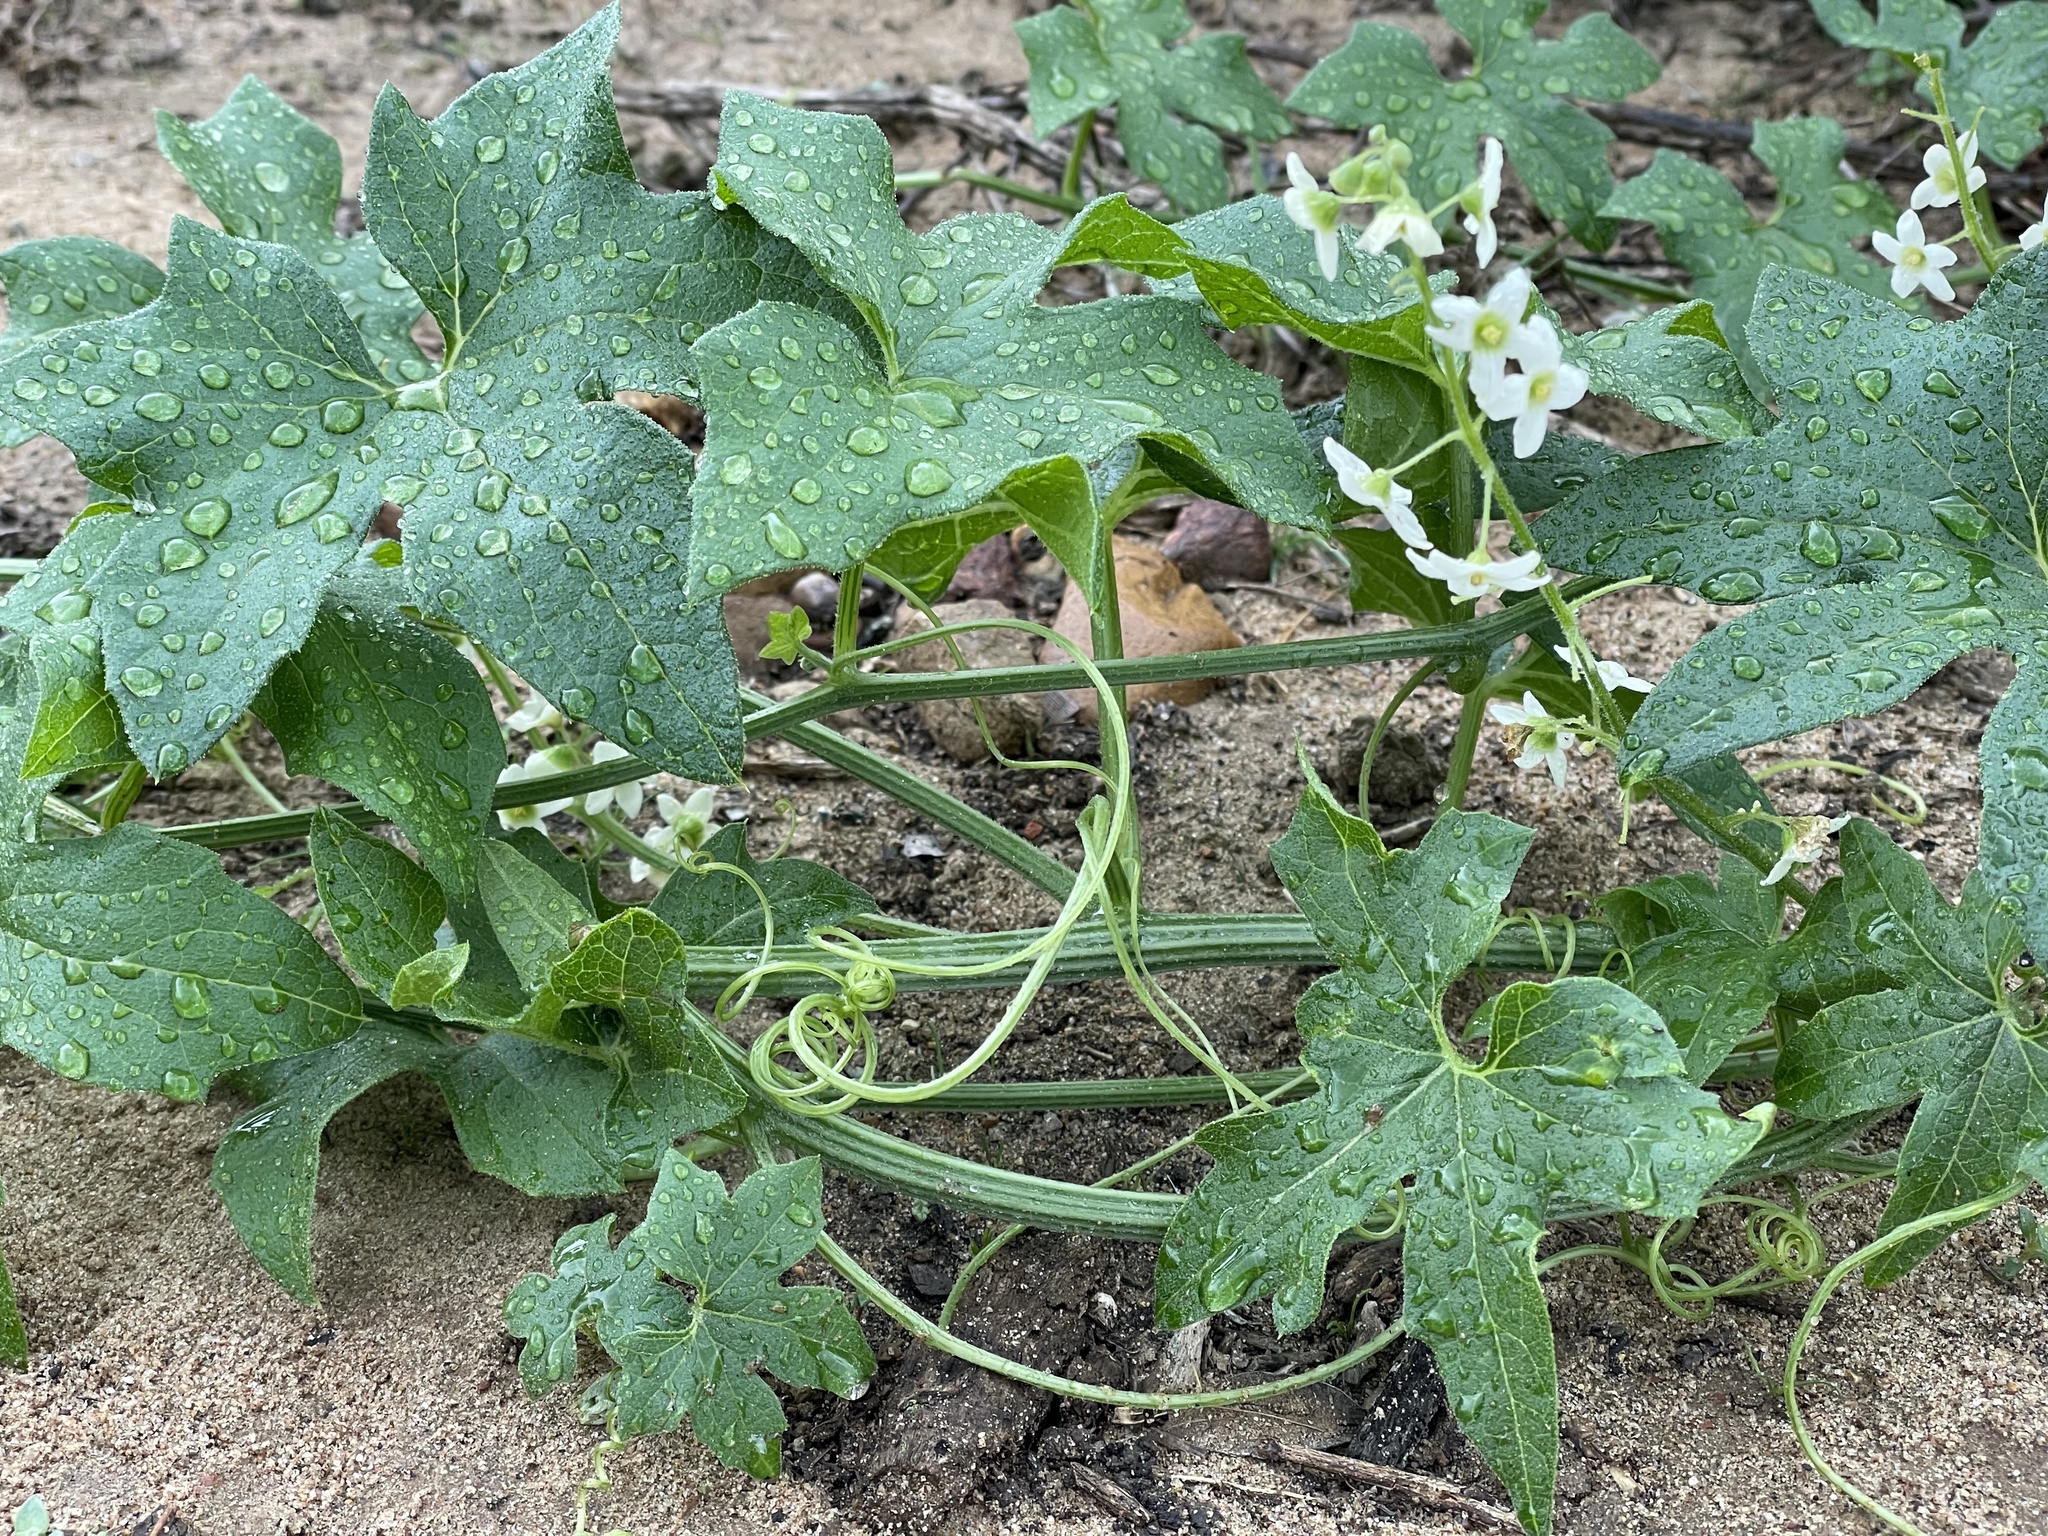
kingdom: Plantae
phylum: Tracheophyta
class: Magnoliopsida
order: Cucurbitales
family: Cucurbitaceae
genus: Marah
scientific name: Marah macrocarpa
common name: Cucamonga manroot
